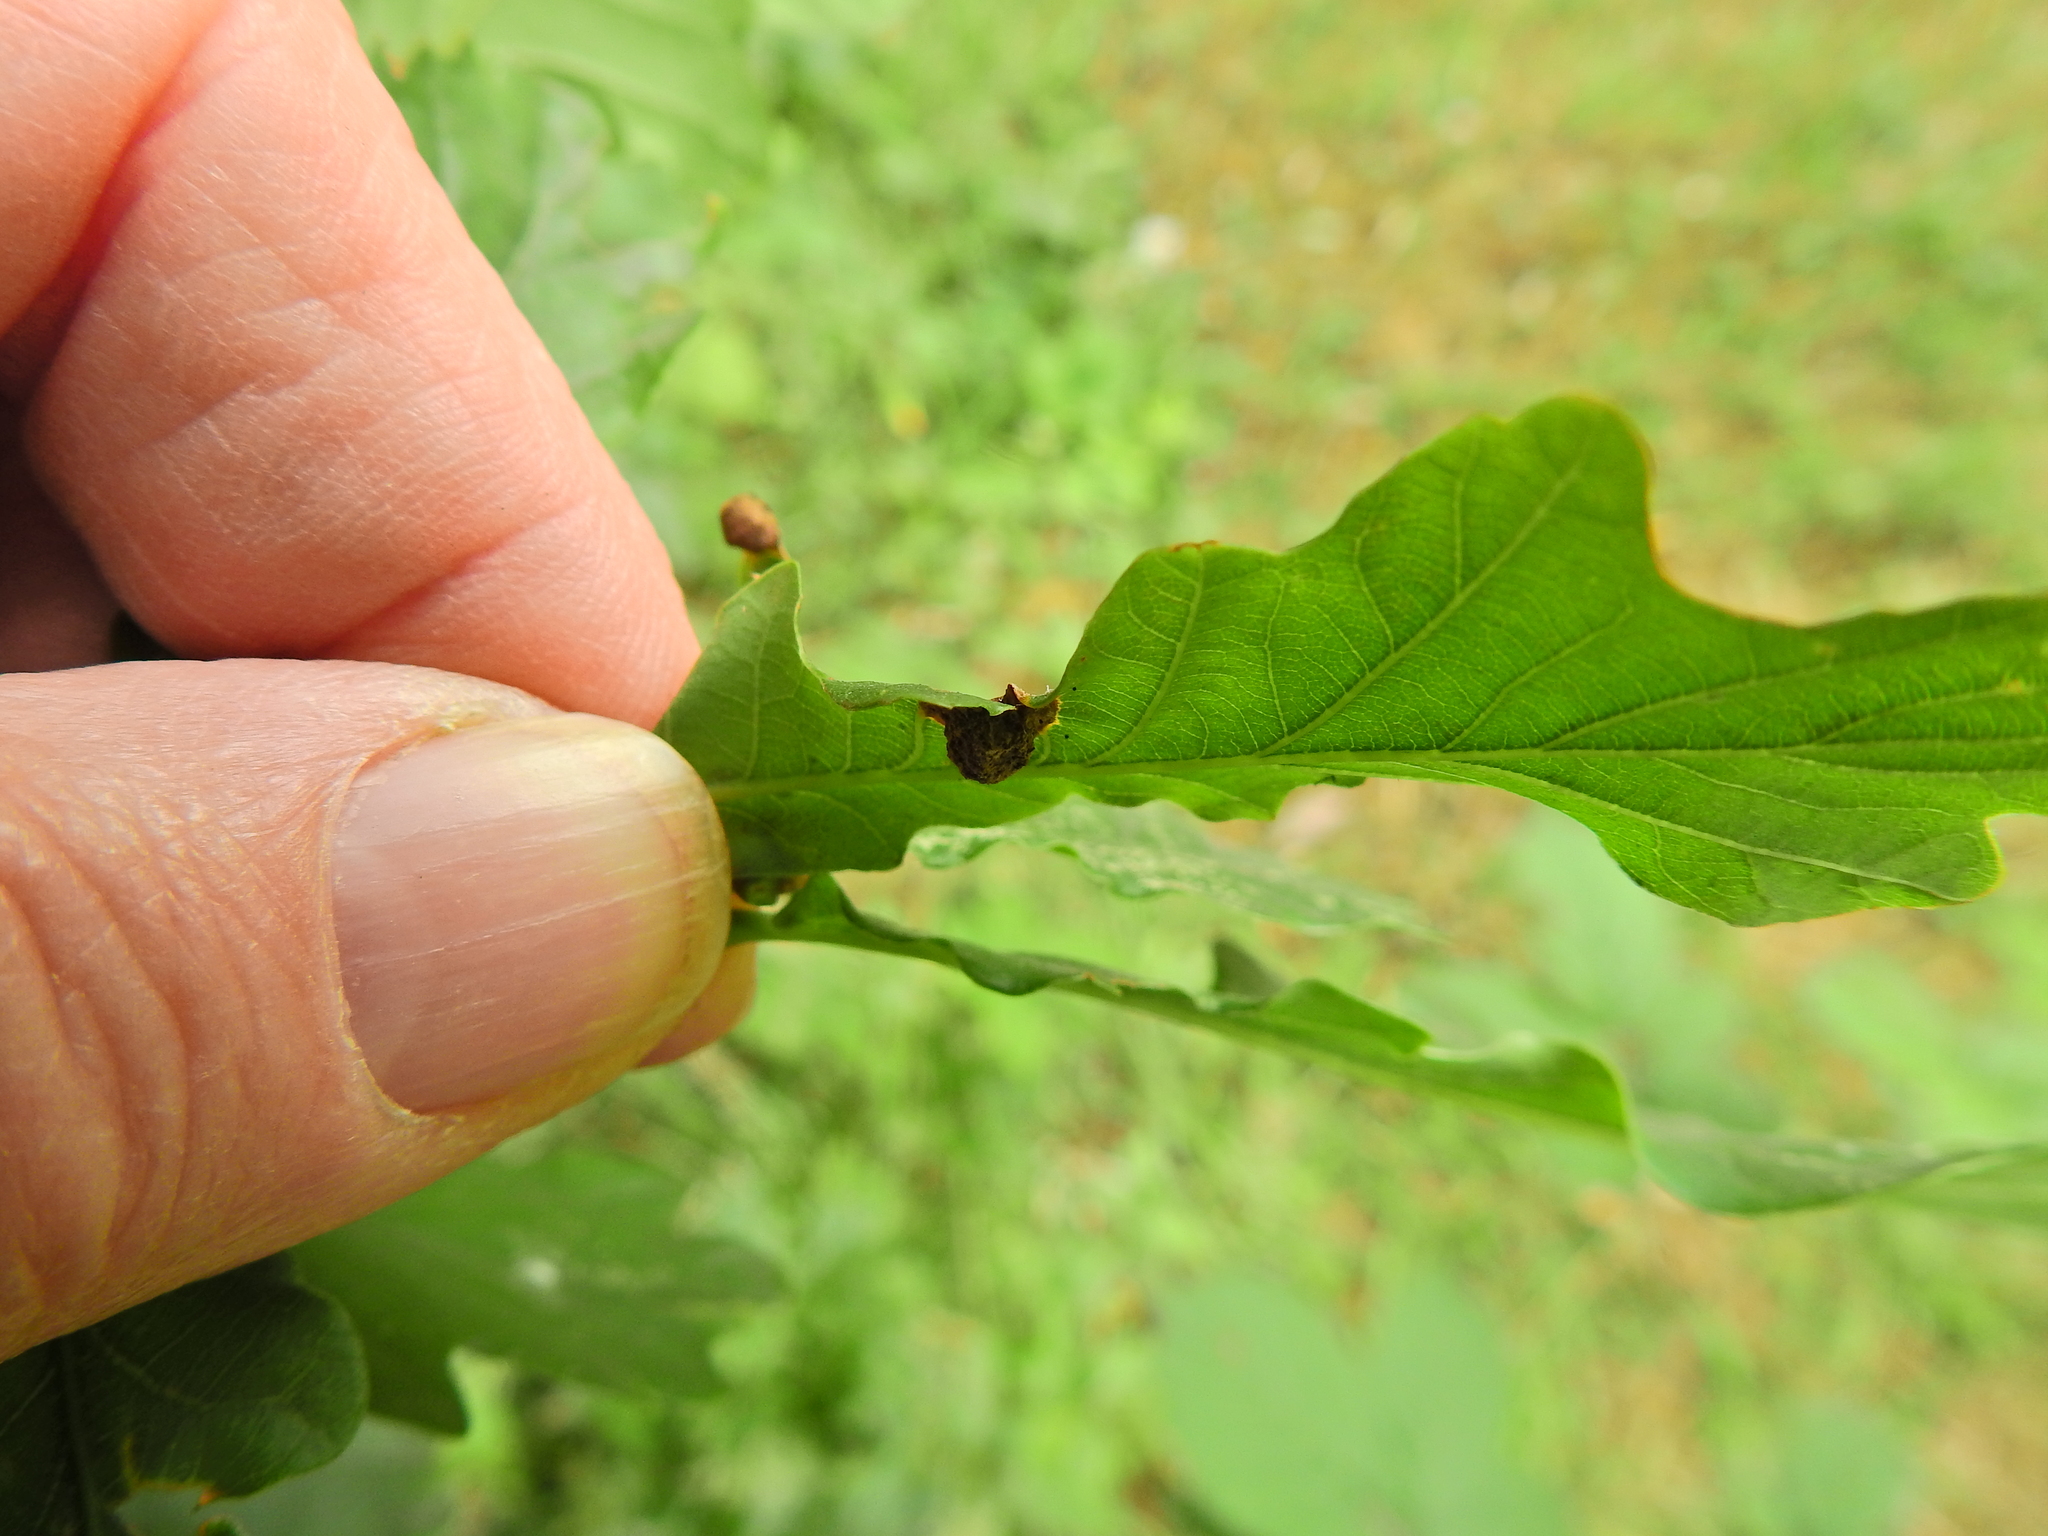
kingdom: Animalia
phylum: Arthropoda
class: Insecta
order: Hymenoptera
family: Cynipidae
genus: Neuroterus
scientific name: Neuroterus quercusbaccarum
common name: Common spangle gall
